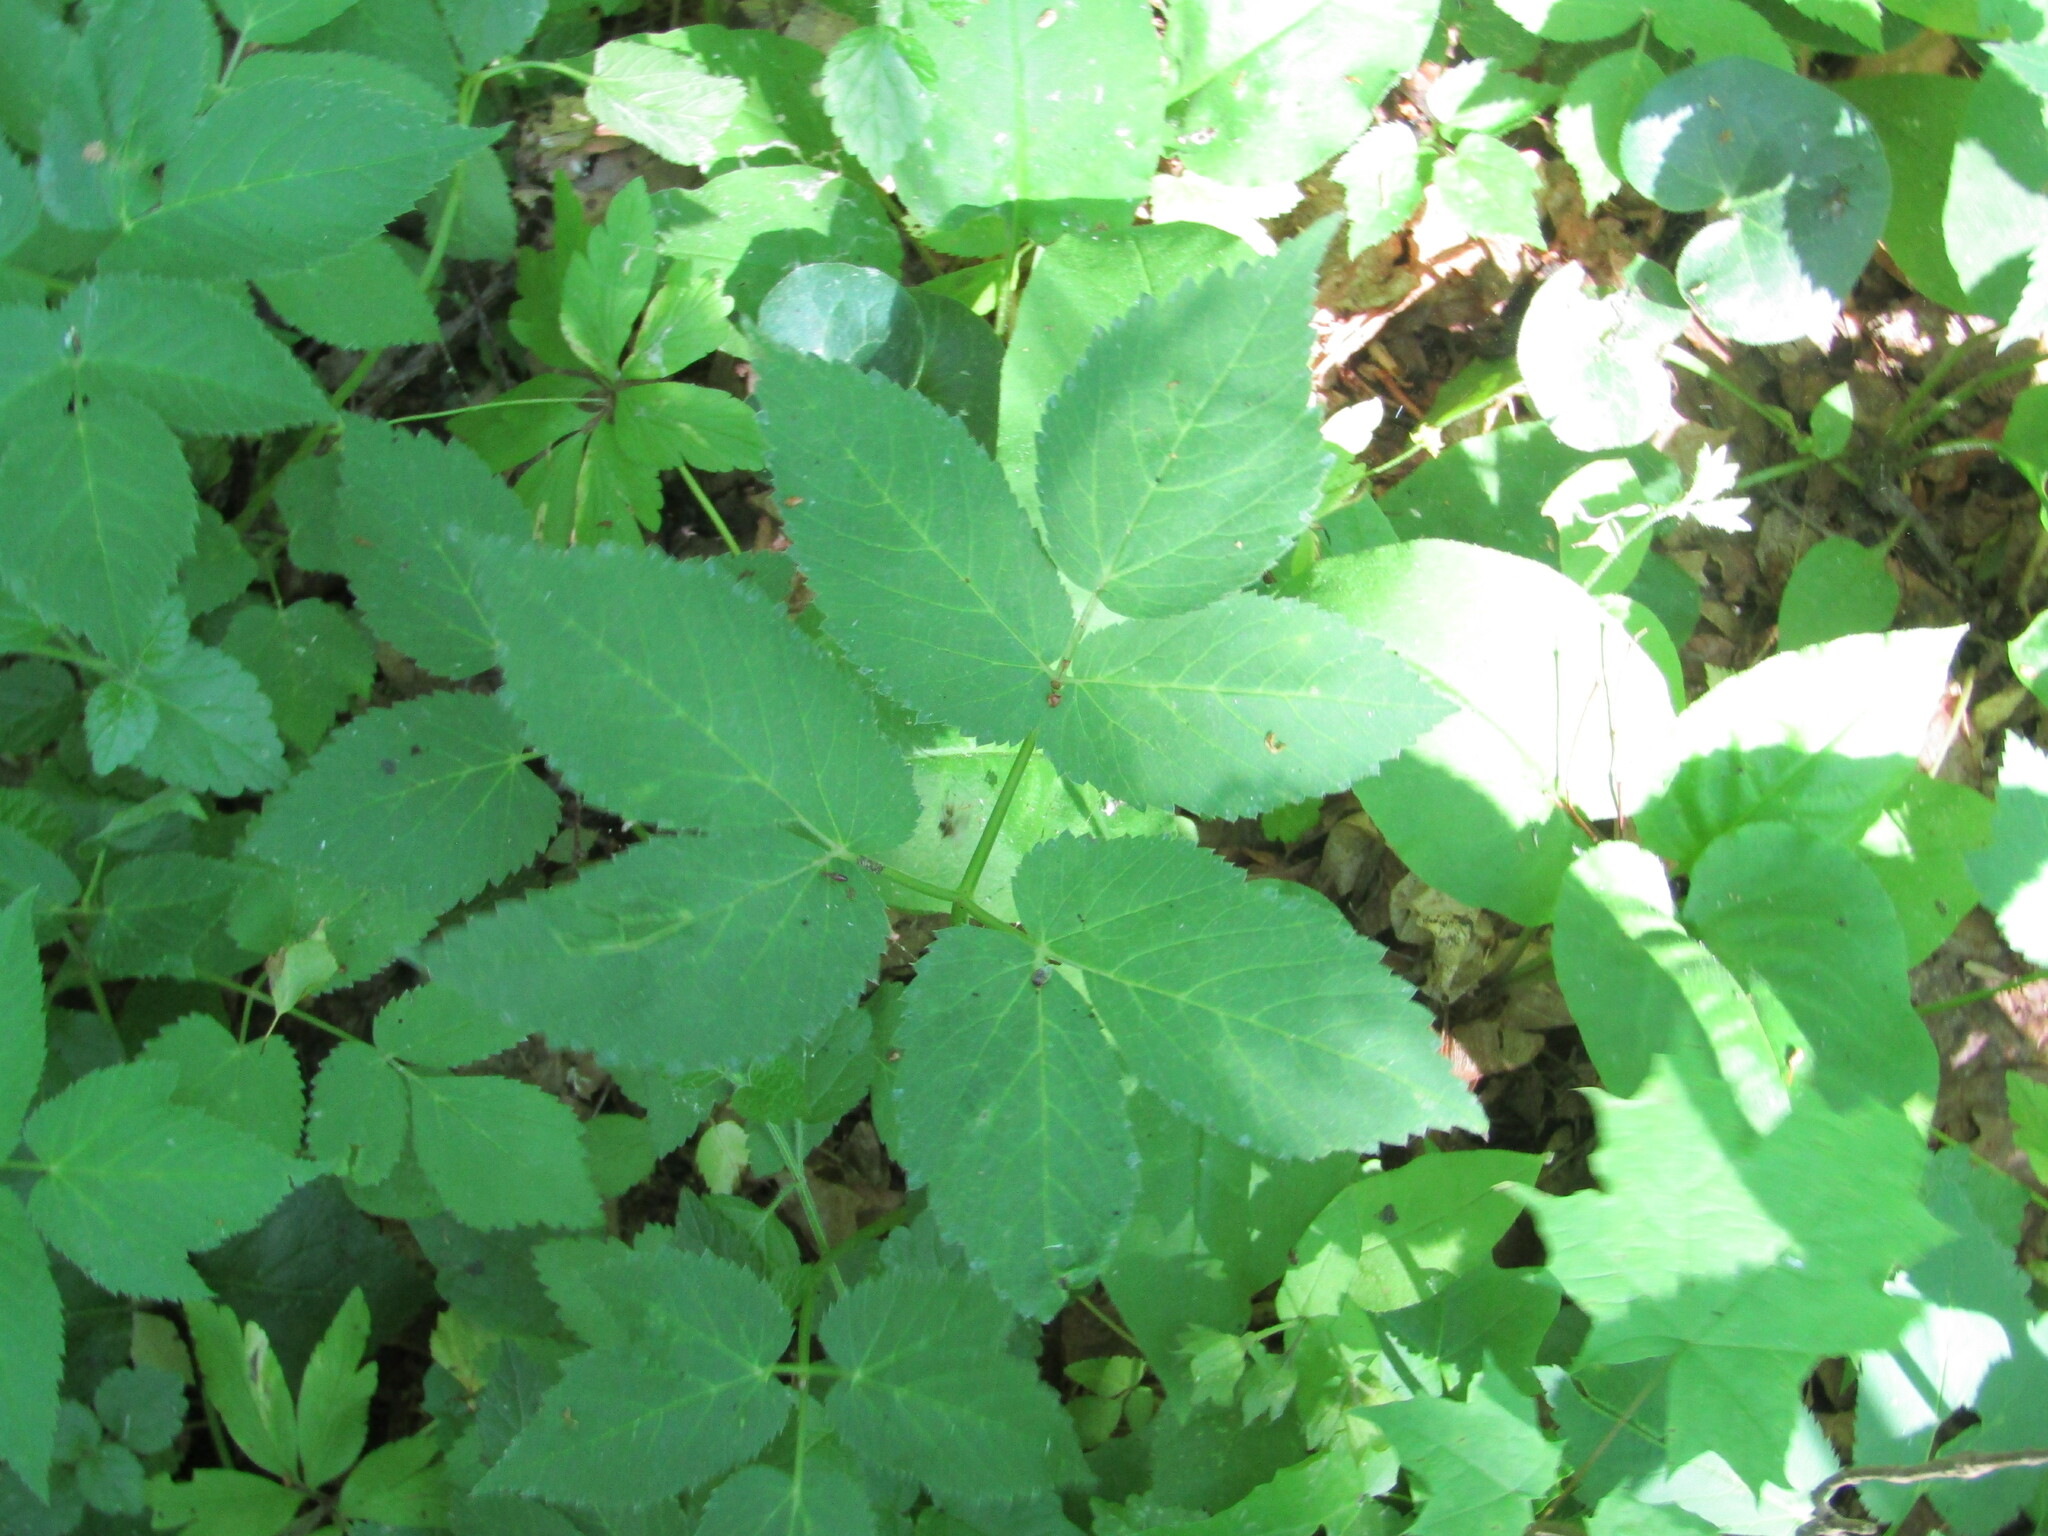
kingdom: Plantae
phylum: Tracheophyta
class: Magnoliopsida
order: Apiales
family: Apiaceae
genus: Aegopodium
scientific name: Aegopodium podagraria
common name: Ground-elder
